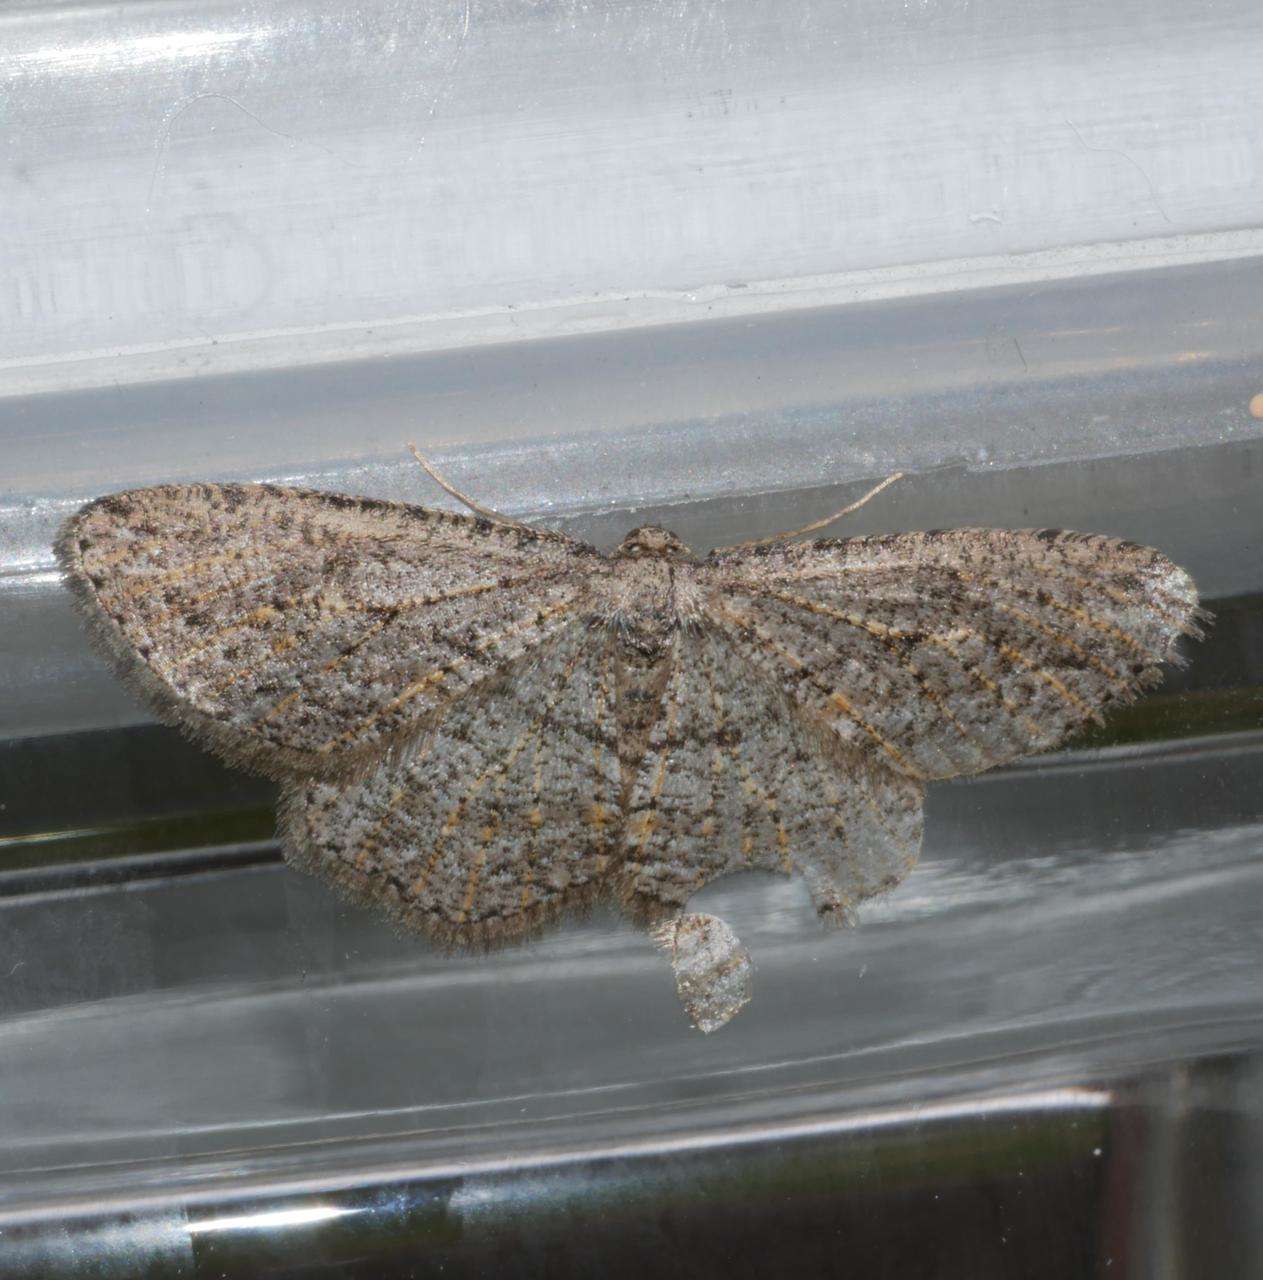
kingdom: Animalia
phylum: Arthropoda
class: Insecta
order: Lepidoptera
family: Geometridae
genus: Zermizinga
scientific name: Zermizinga sinuata
